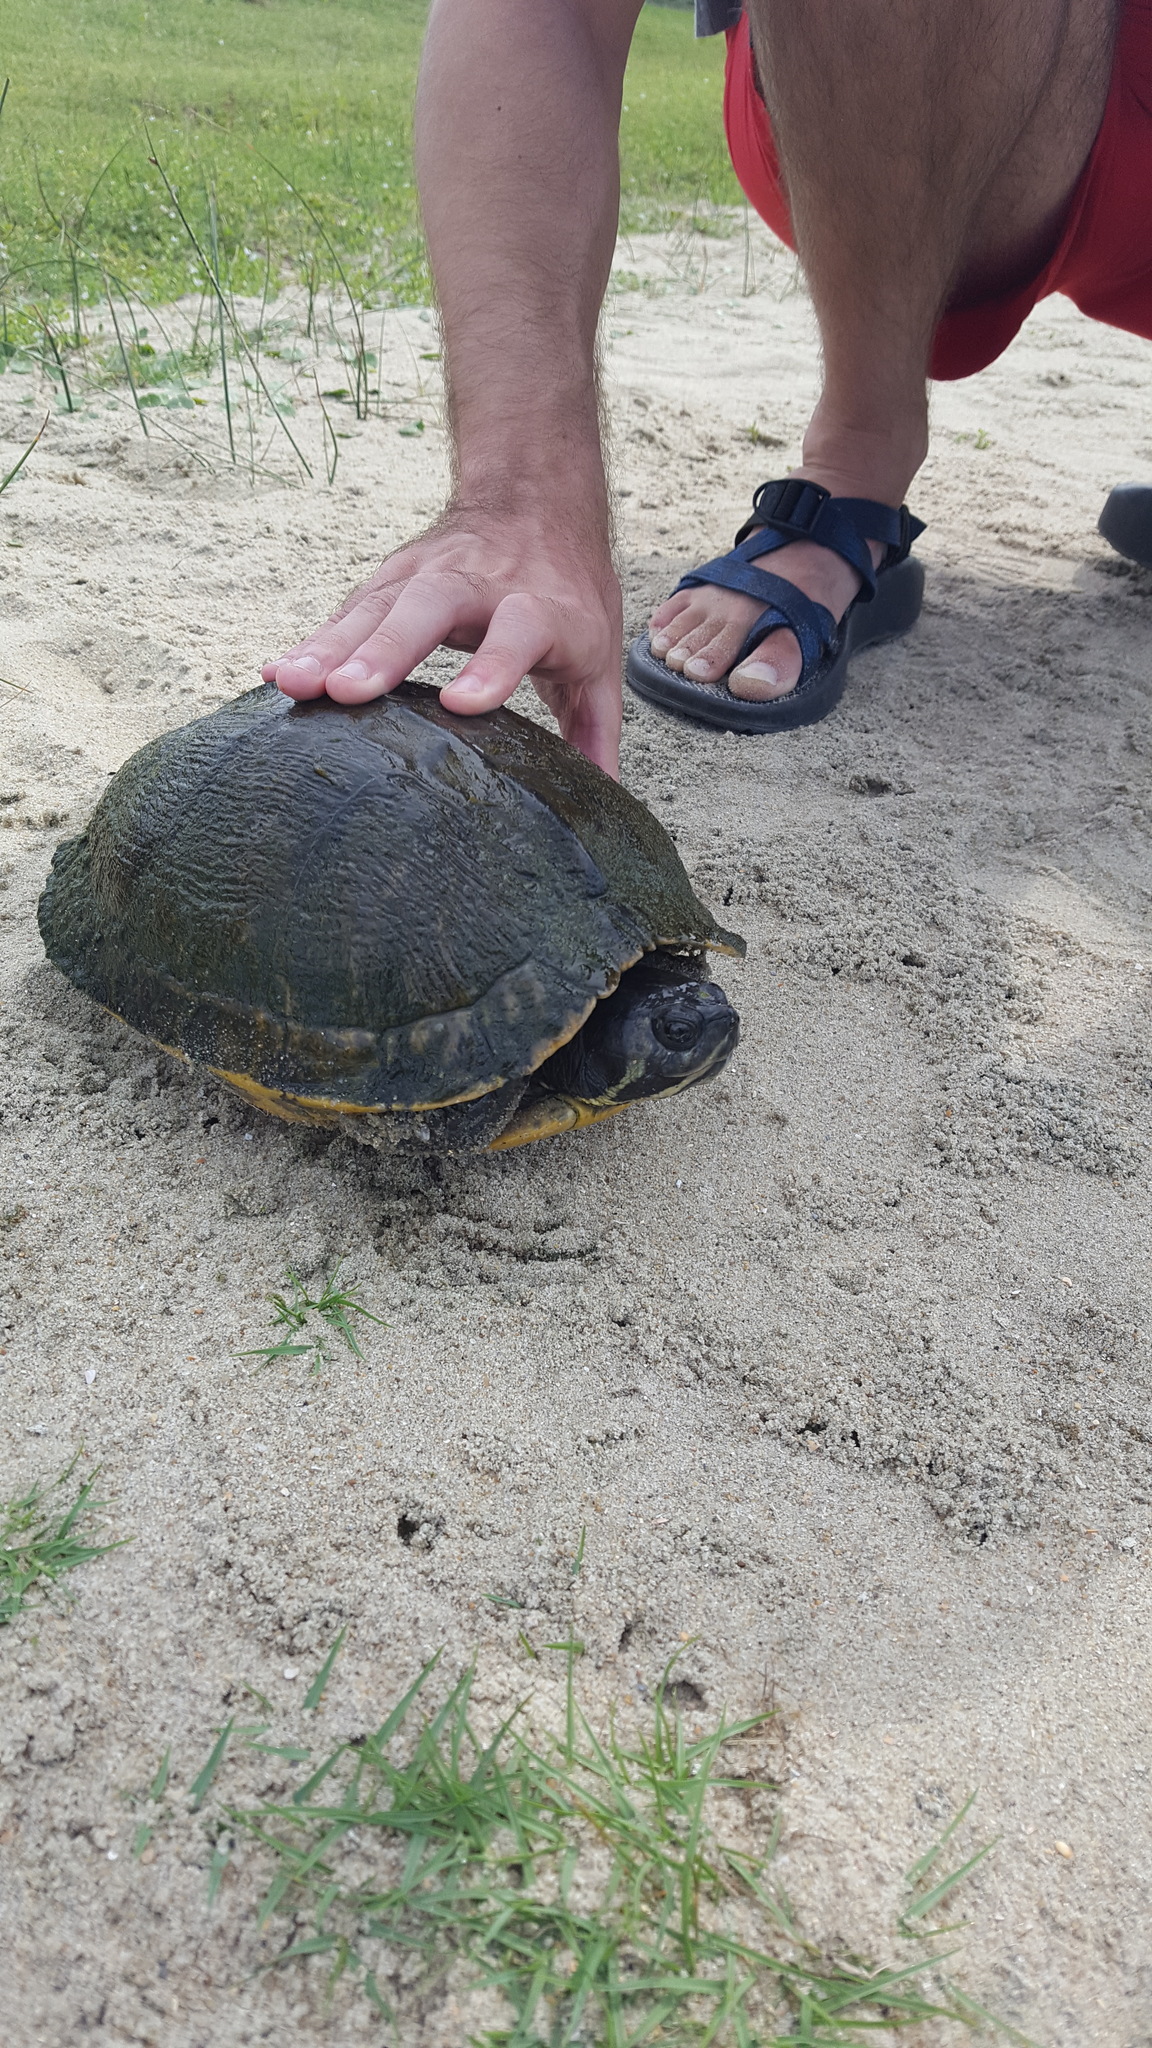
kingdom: Animalia
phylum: Chordata
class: Testudines
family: Emydidae
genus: Trachemys
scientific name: Trachemys scripta
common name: Slider
